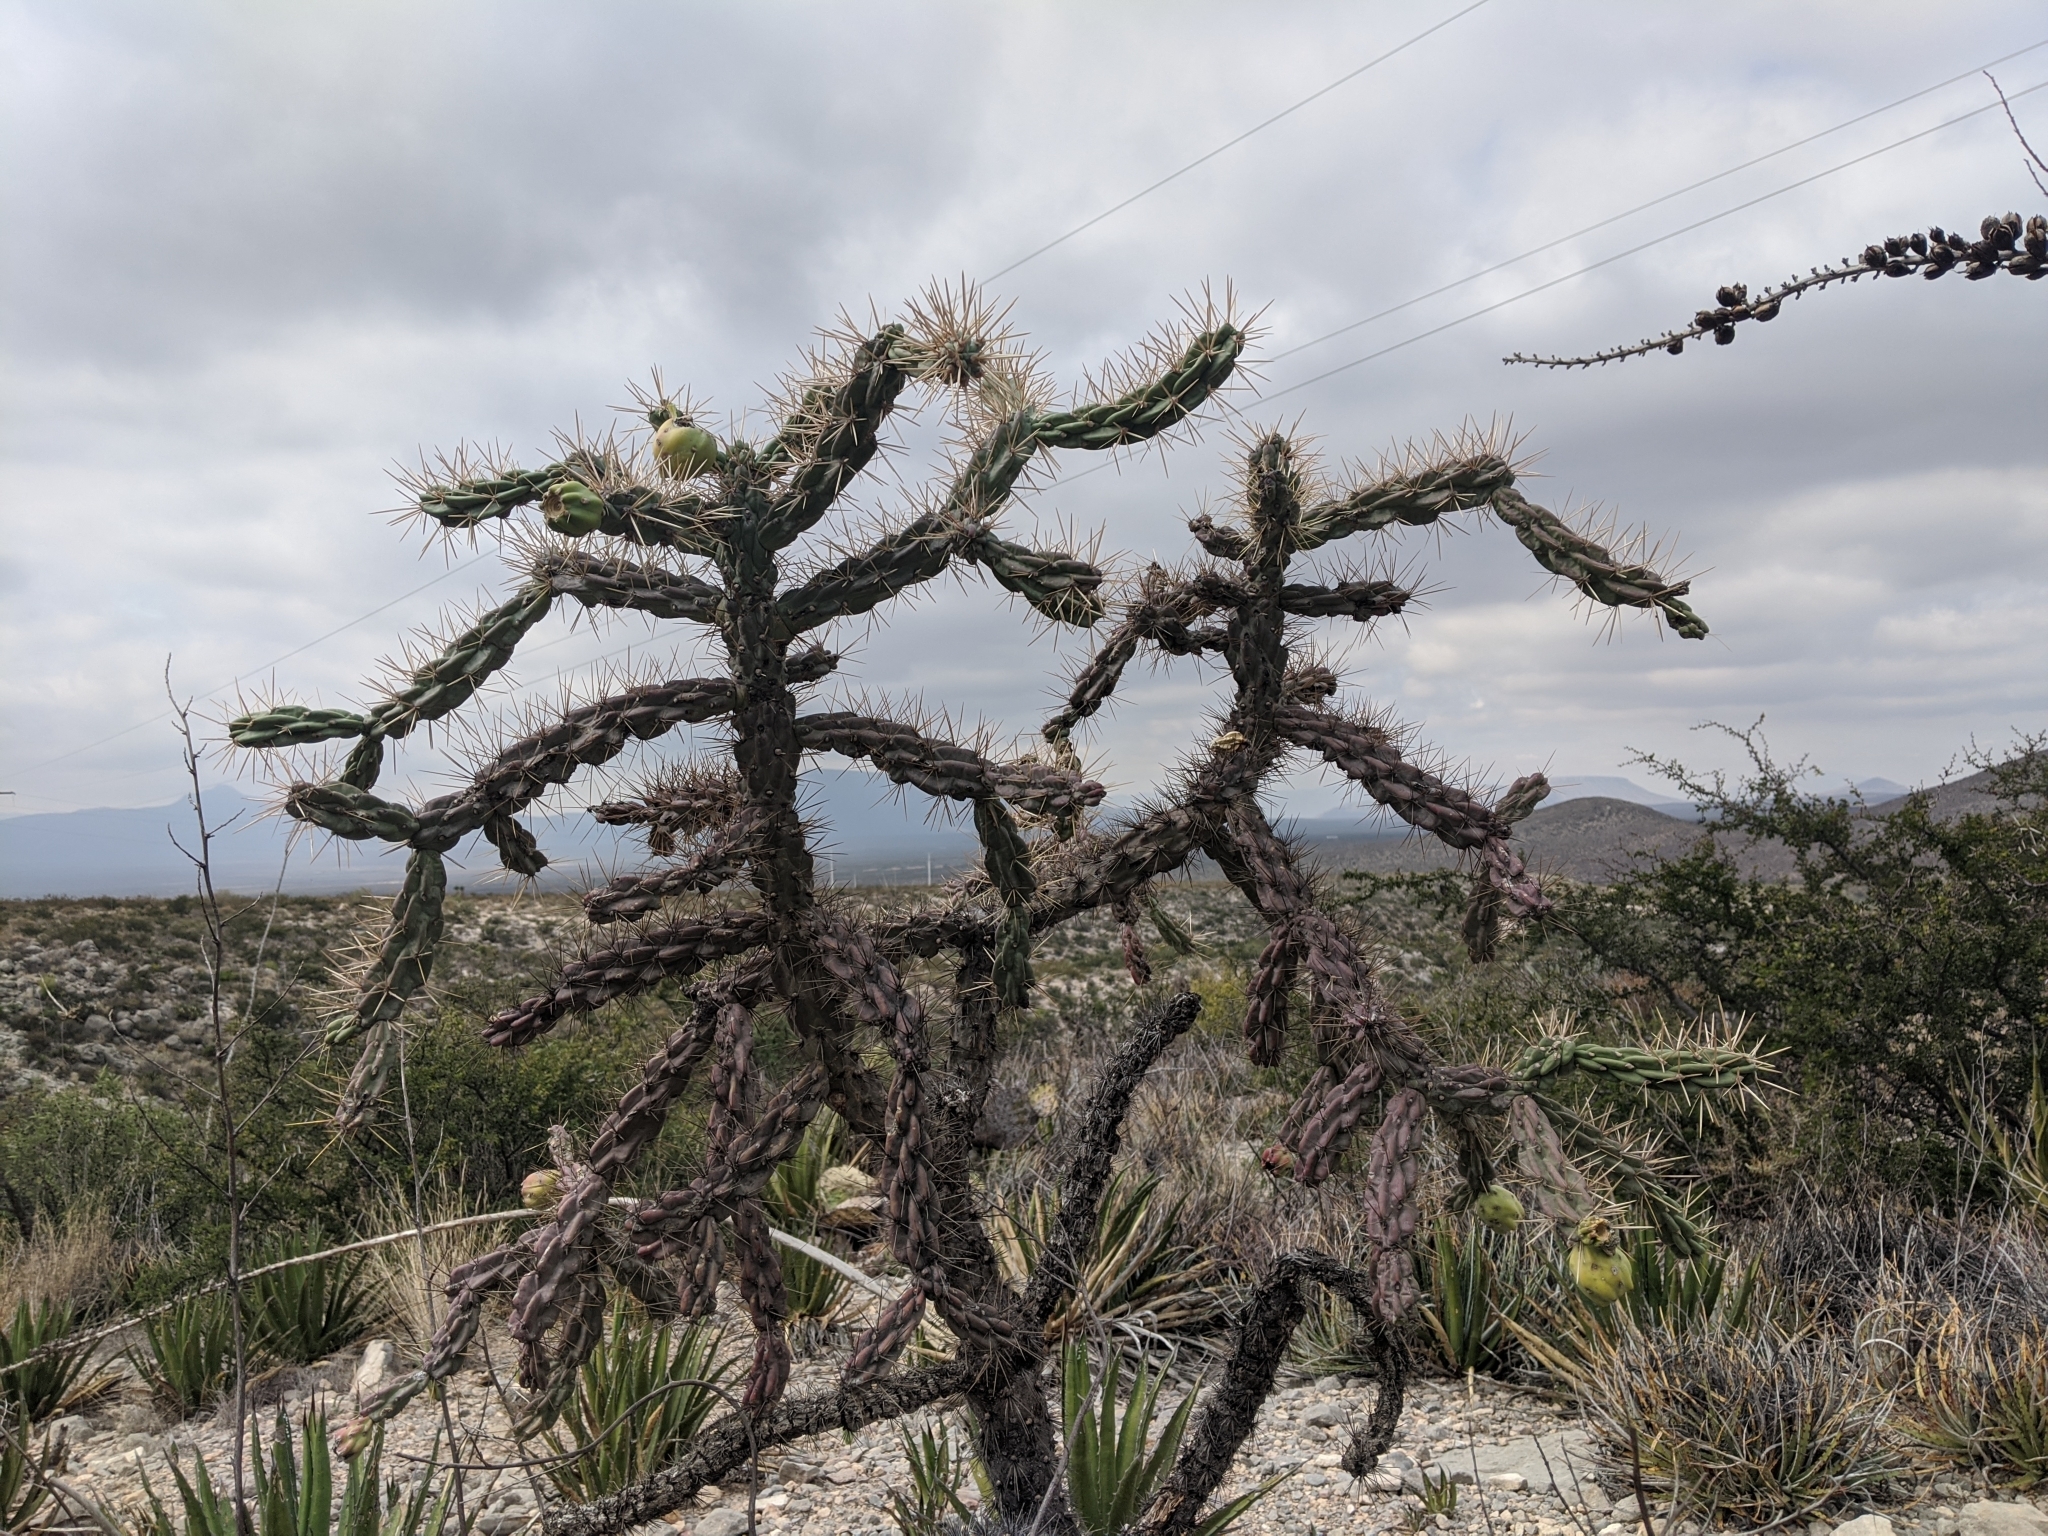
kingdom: Plantae
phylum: Tracheophyta
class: Magnoliopsida
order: Caryophyllales
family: Cactaceae
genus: Cylindropuntia
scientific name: Cylindropuntia imbricata
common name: Candelabrum cactus
